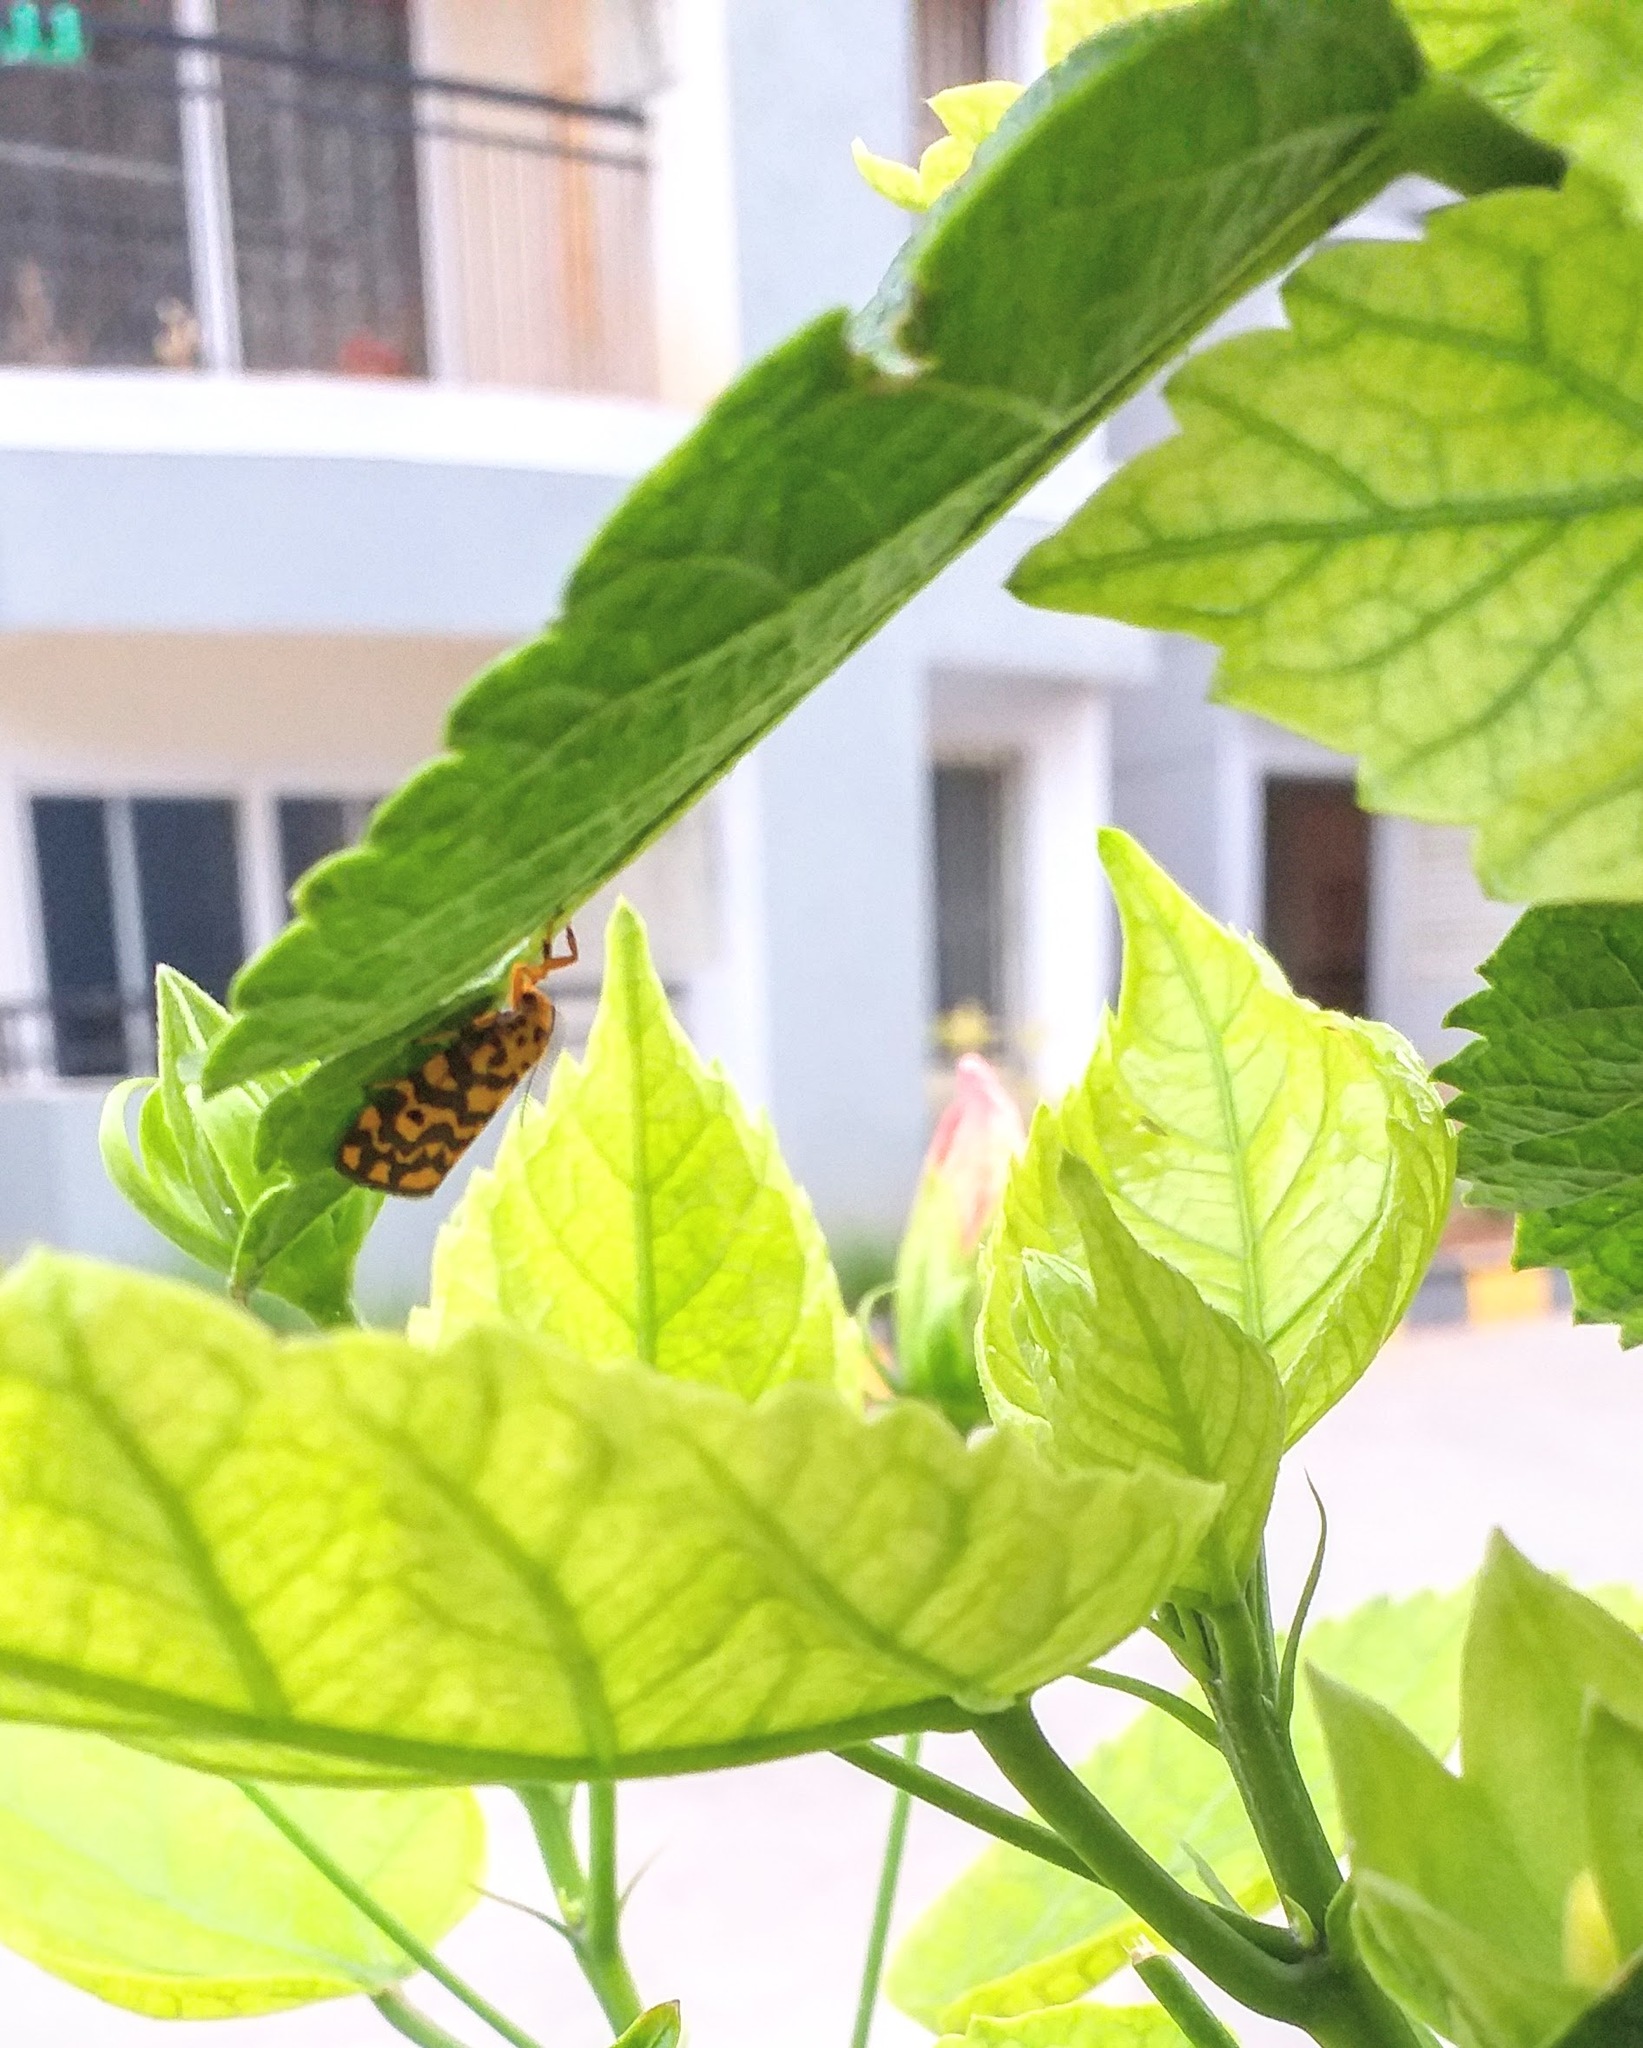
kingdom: Animalia
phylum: Arthropoda
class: Insecta
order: Lepidoptera
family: Erebidae
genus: Nepita
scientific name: Nepita conferta
